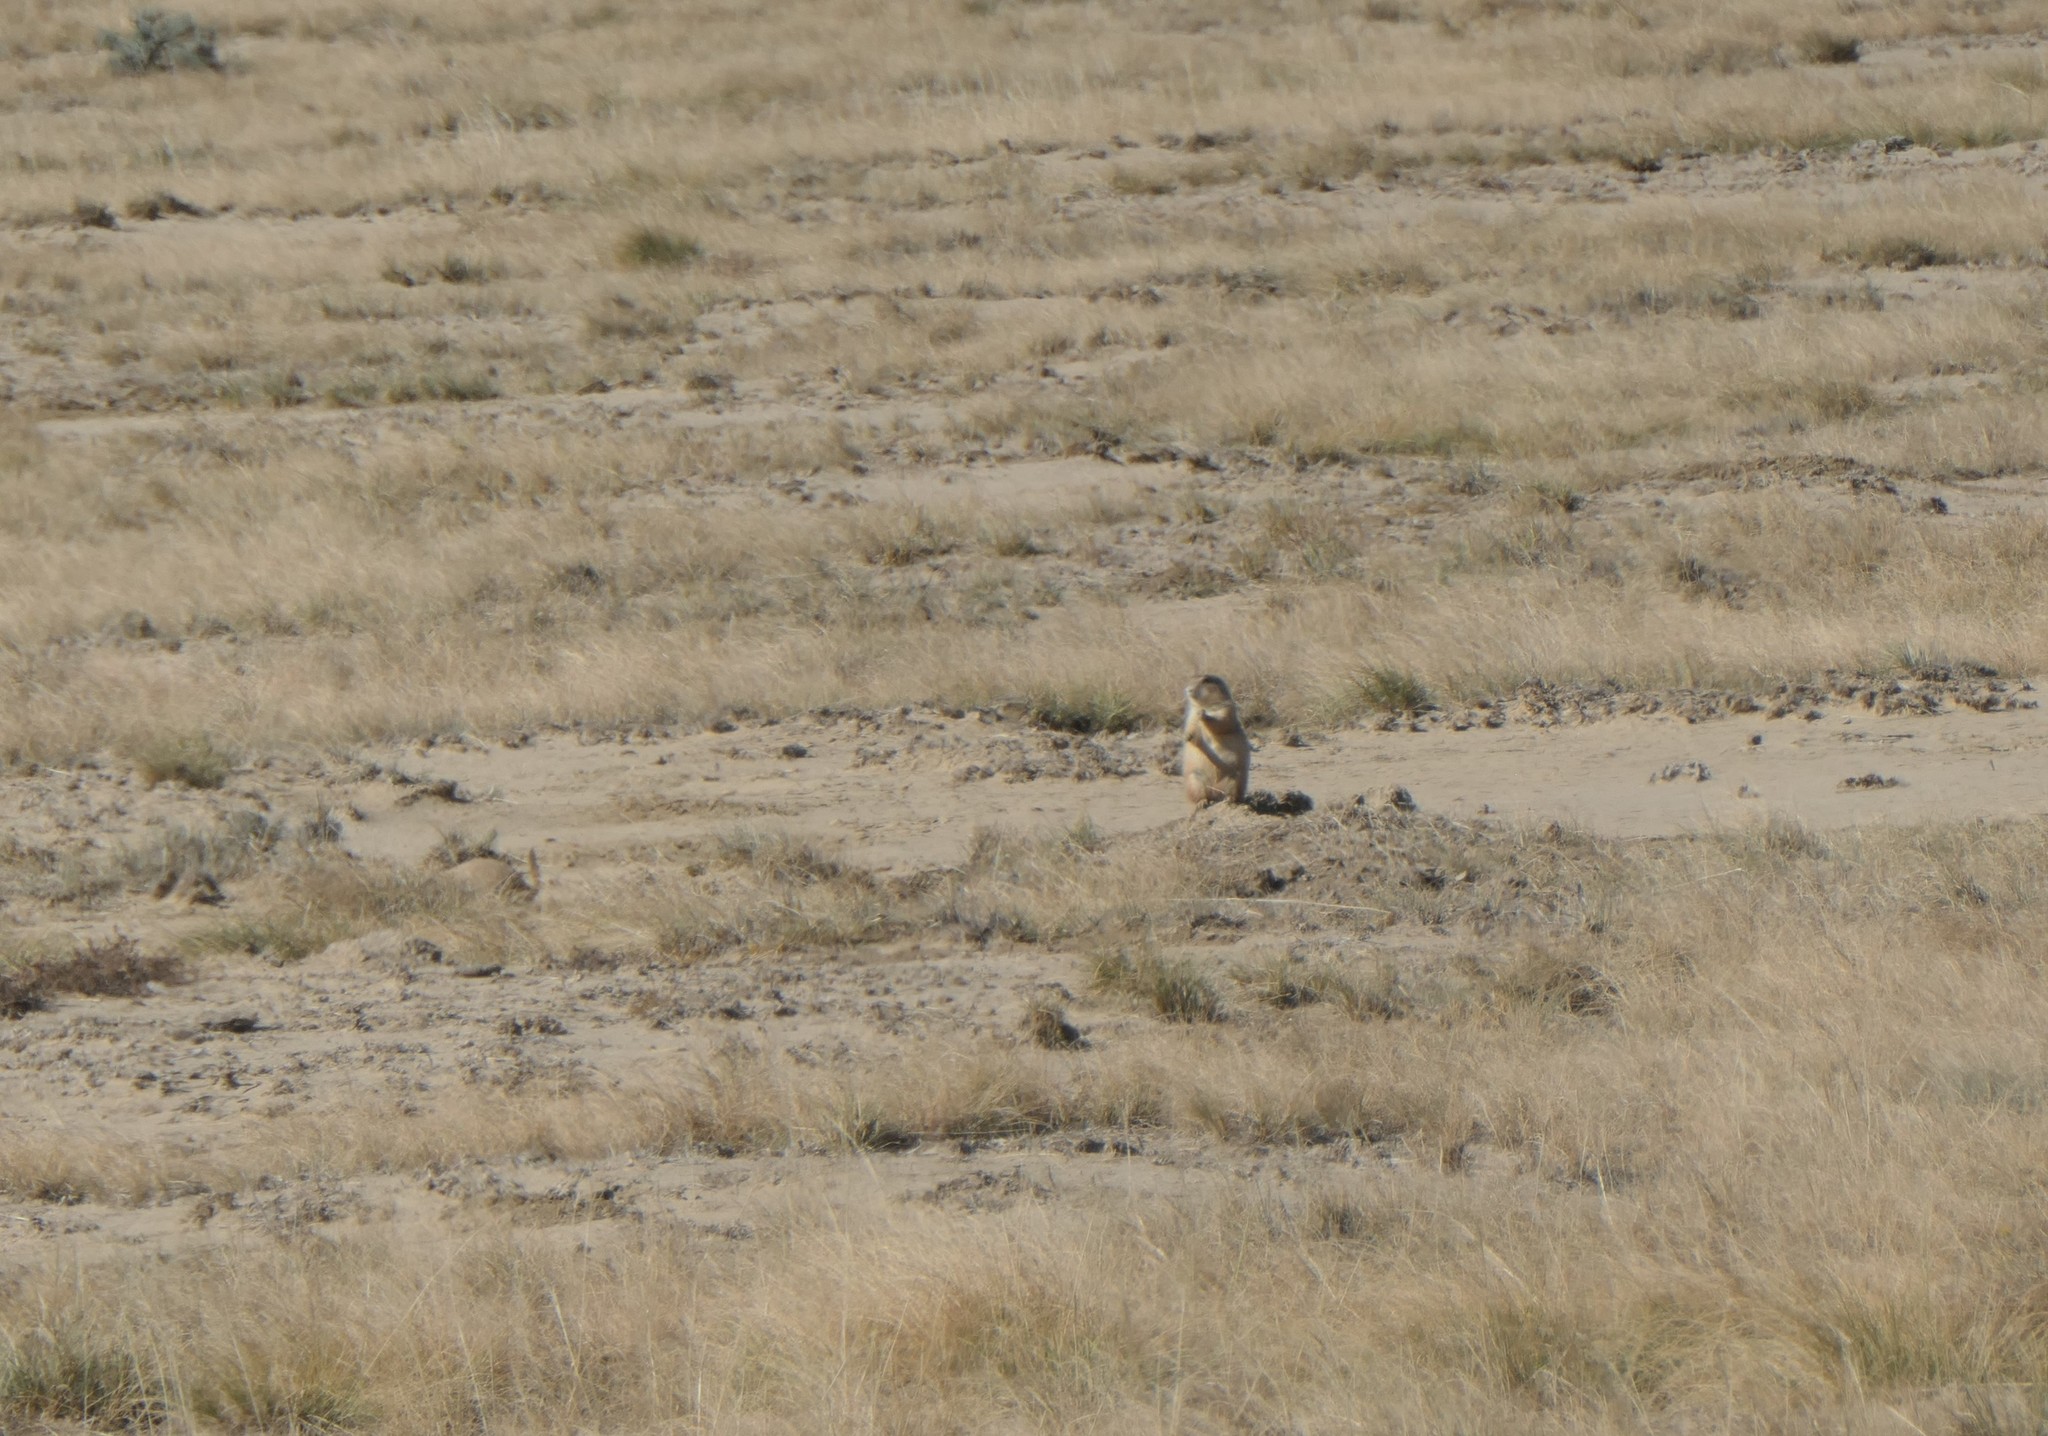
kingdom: Animalia
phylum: Chordata
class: Mammalia
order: Rodentia
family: Sciuridae
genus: Cynomys
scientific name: Cynomys ludovicianus
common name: Black-tailed prairie dog
